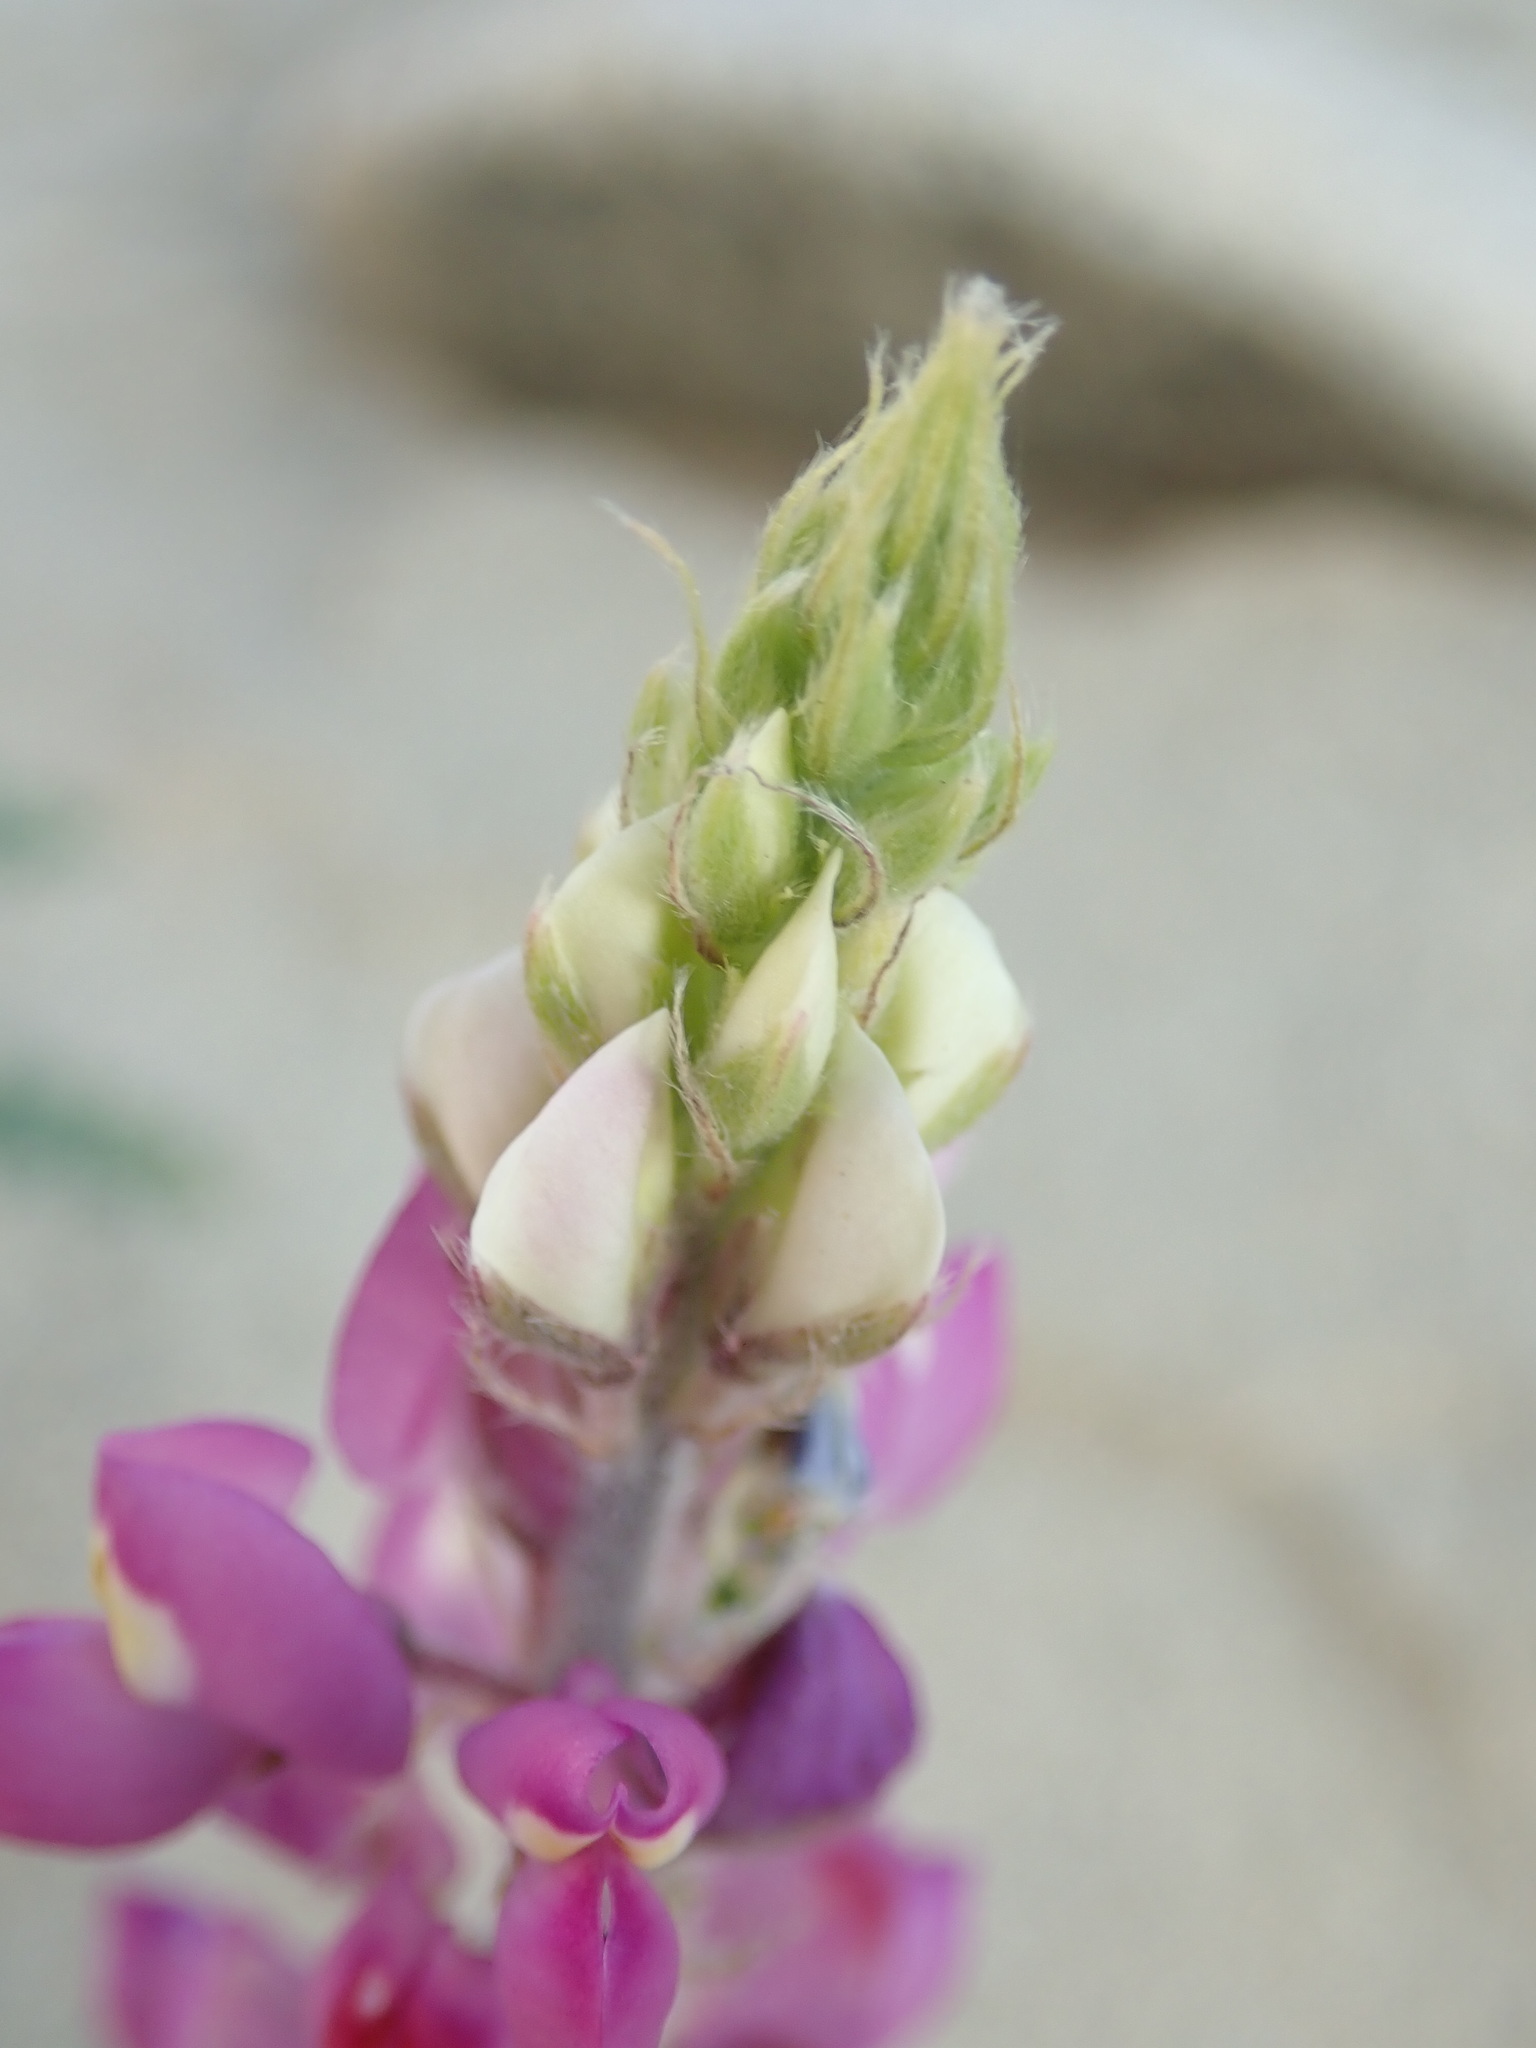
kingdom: Plantae
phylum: Tracheophyta
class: Magnoliopsida
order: Fabales
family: Fabaceae
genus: Lupinus
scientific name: Lupinus arizonicus
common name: Arizona lupine
